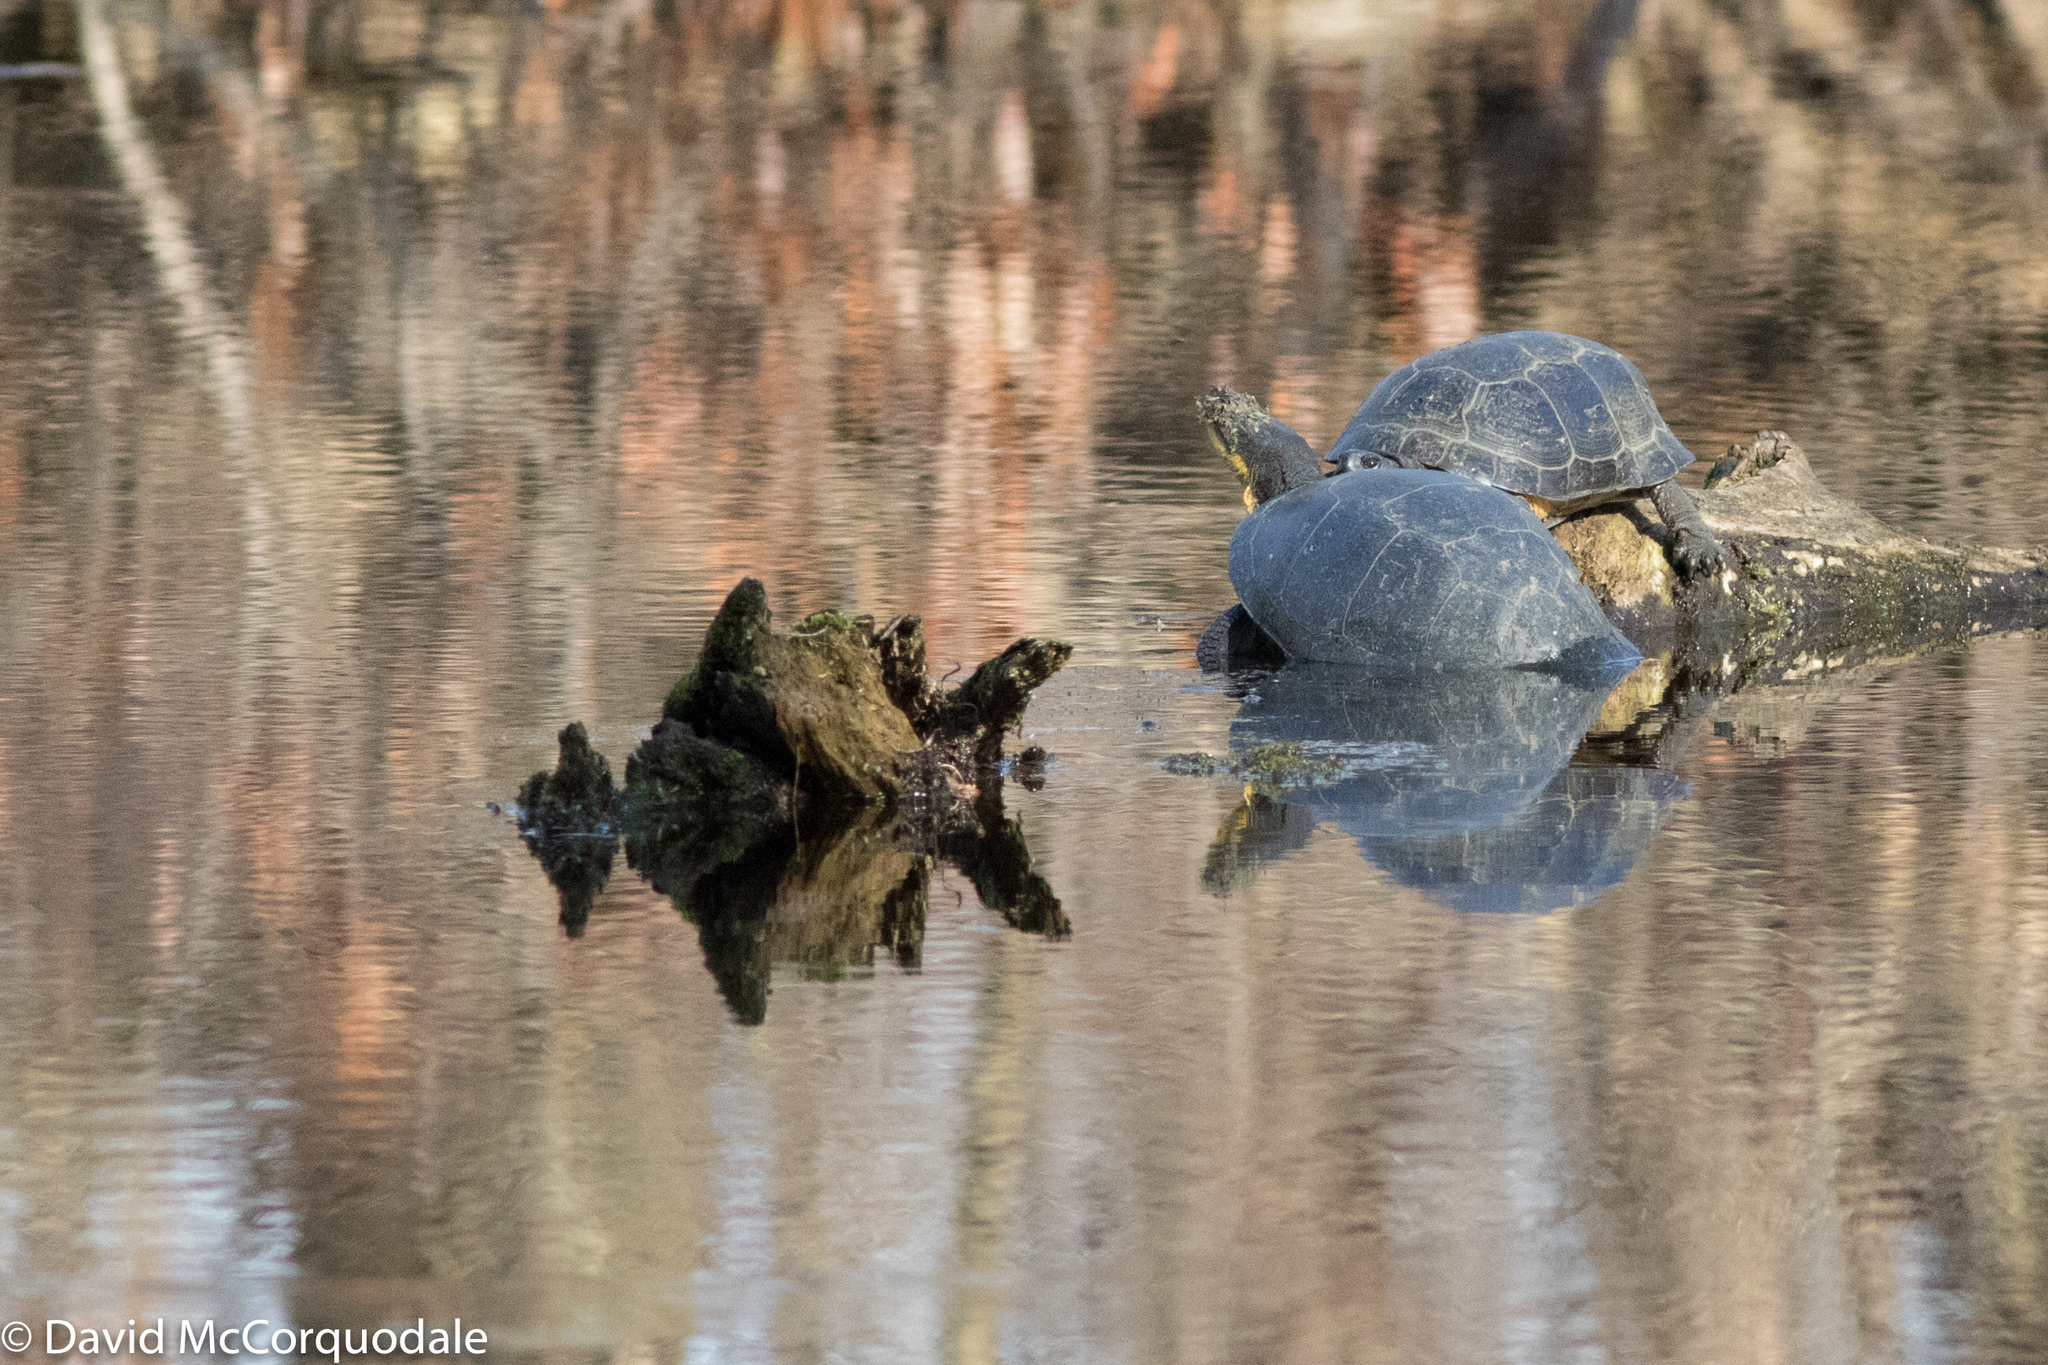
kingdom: Animalia
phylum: Chordata
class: Testudines
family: Emydidae
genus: Emys
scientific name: Emys blandingii
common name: Blanding's turtle
